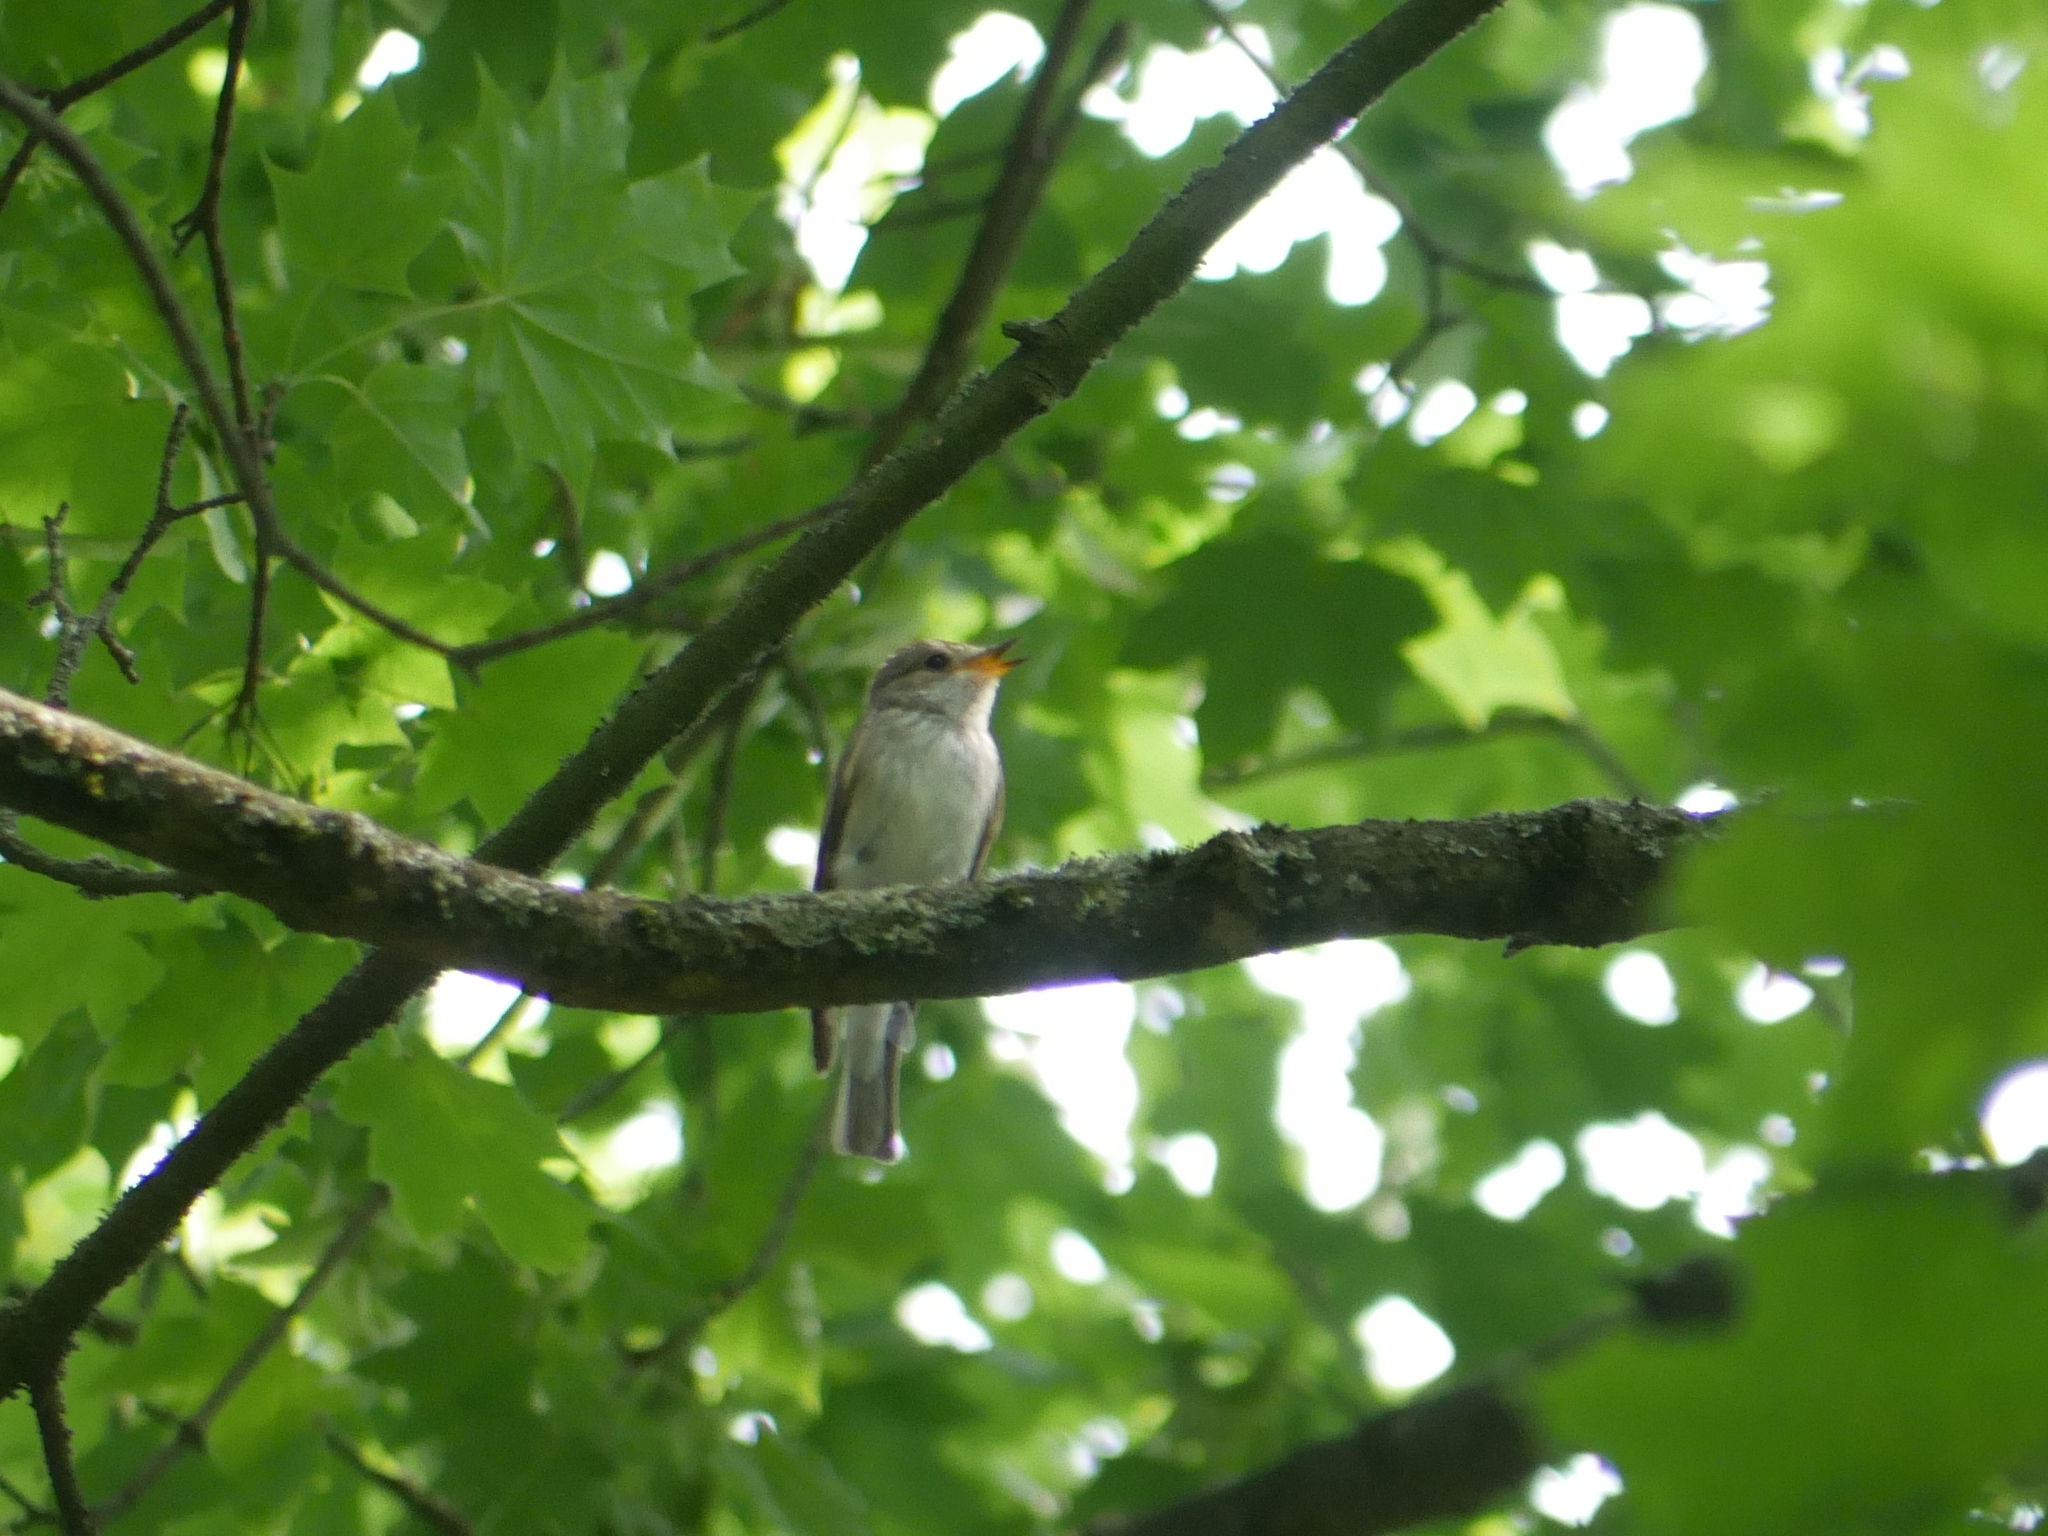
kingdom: Animalia
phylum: Chordata
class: Aves
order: Passeriformes
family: Muscicapidae
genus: Muscicapa
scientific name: Muscicapa striata
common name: Spotted flycatcher
